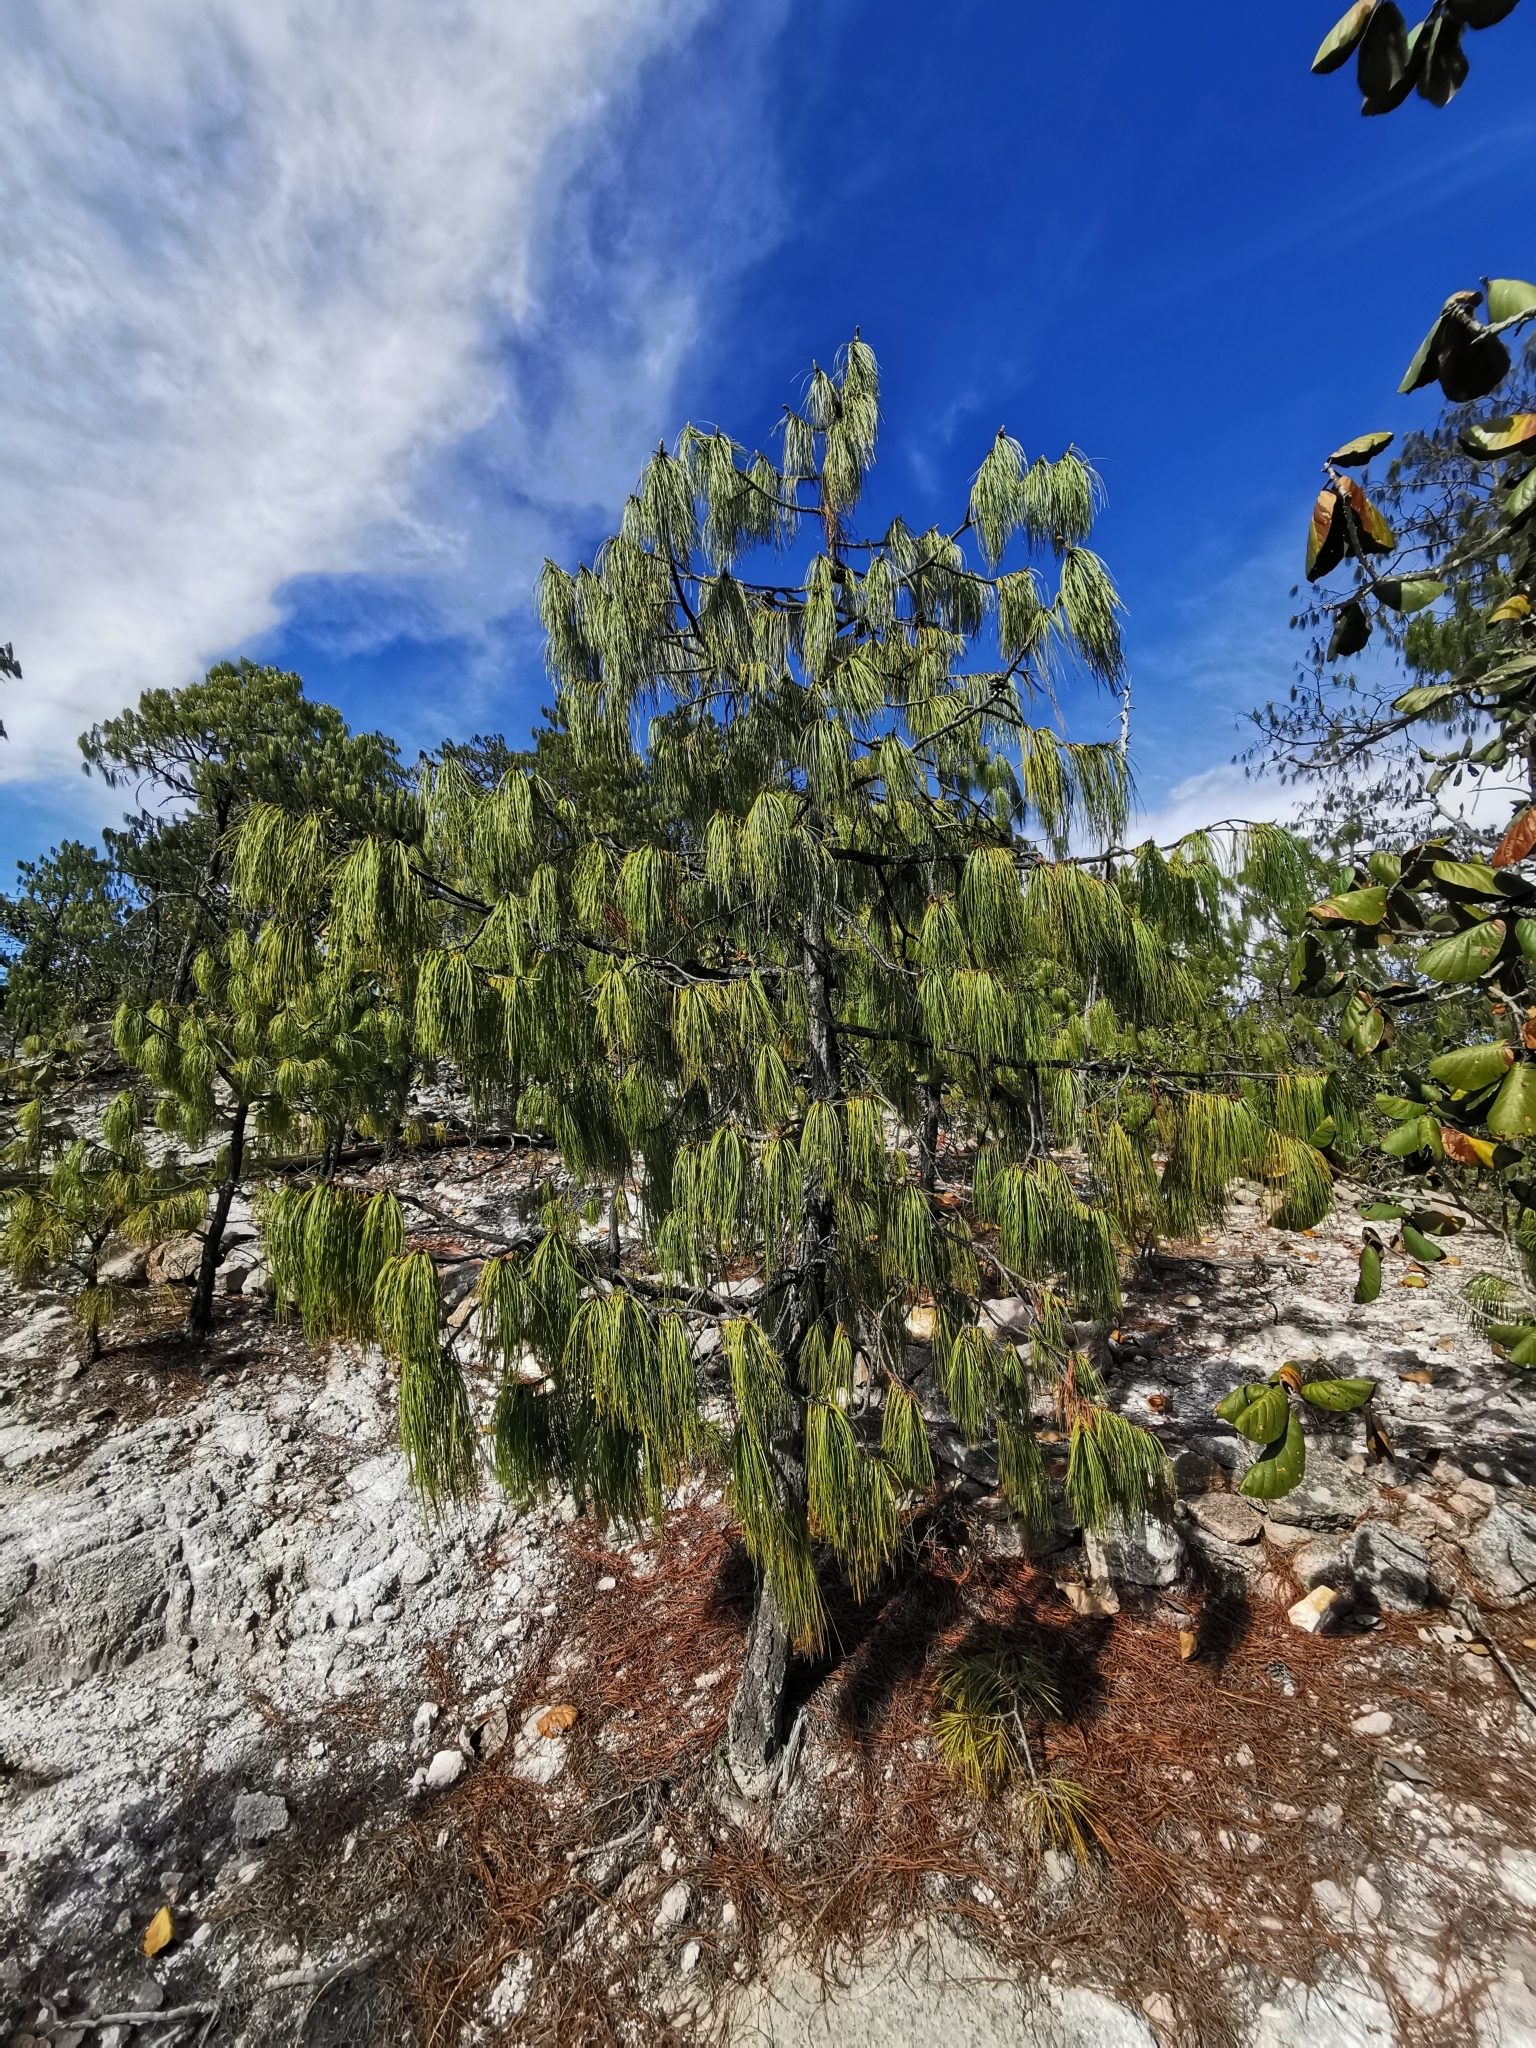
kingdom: Plantae
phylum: Tracheophyta
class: Pinopsida
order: Pinales
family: Pinaceae
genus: Pinus
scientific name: Pinus lumholtzii
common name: Lumholtz's pine
